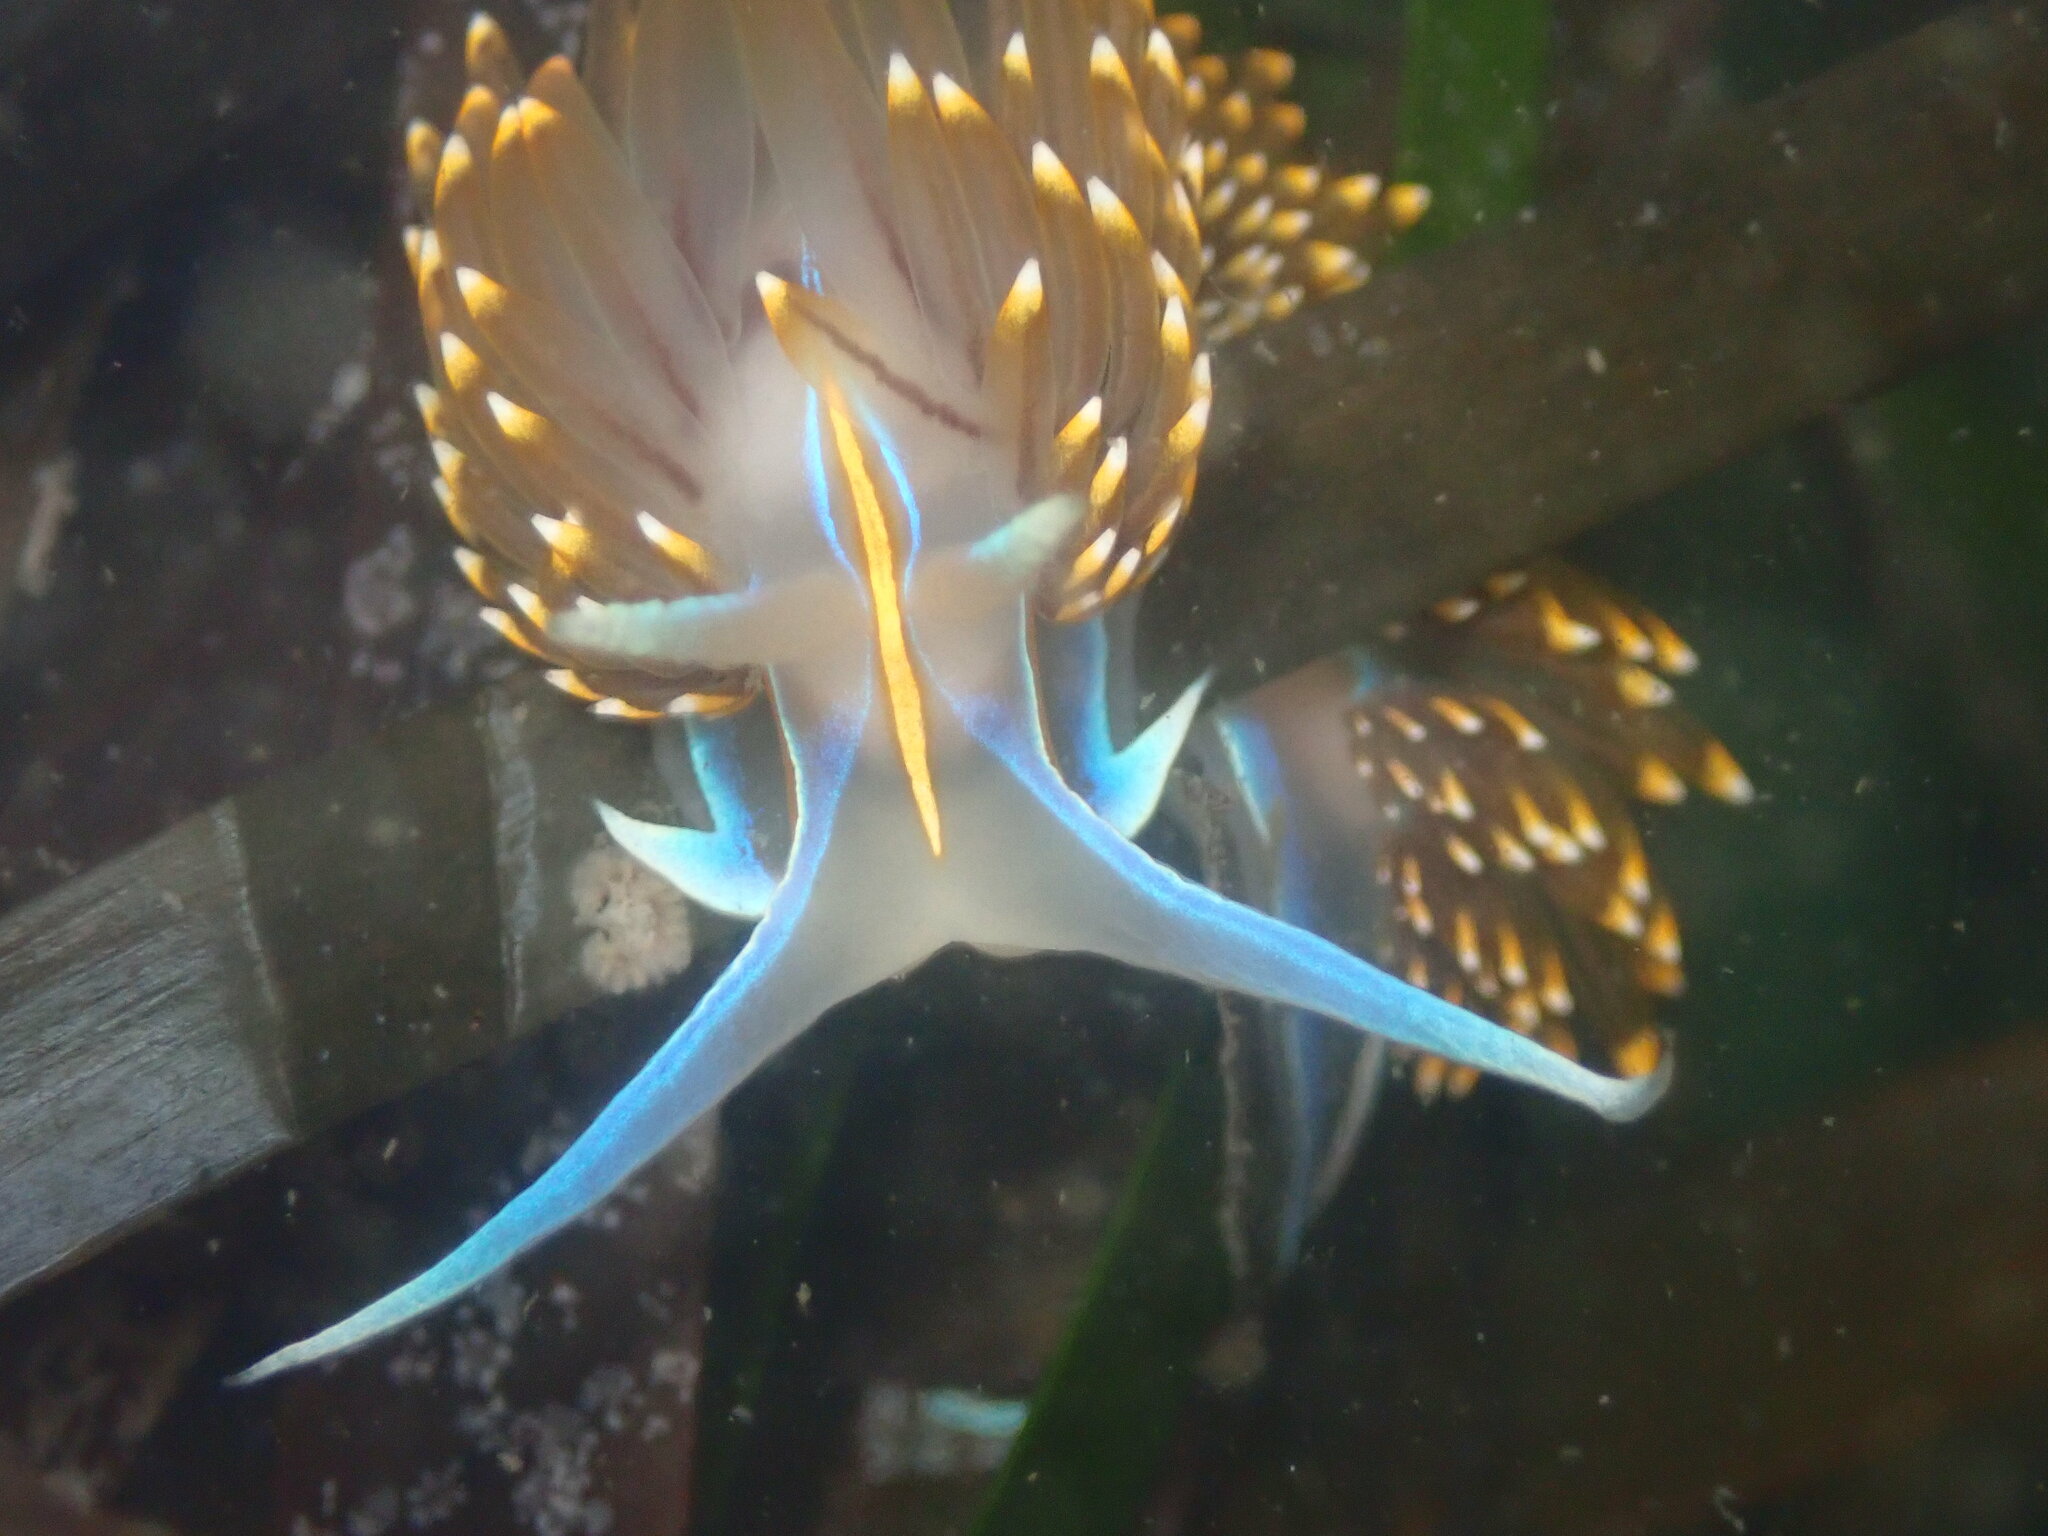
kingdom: Animalia
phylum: Mollusca
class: Gastropoda
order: Nudibranchia
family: Myrrhinidae
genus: Hermissenda
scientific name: Hermissenda opalescens
